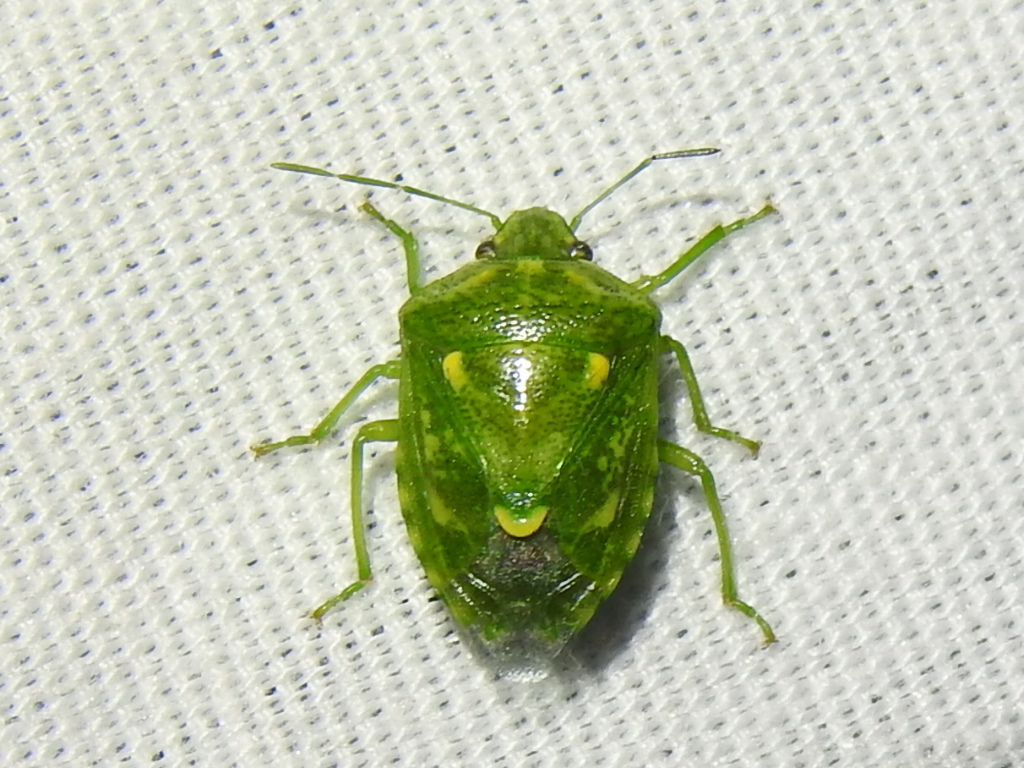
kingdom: Animalia
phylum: Arthropoda
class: Insecta
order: Hemiptera
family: Pentatomidae
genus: Banasa
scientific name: Banasa euchlora
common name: Cedar berry bug
